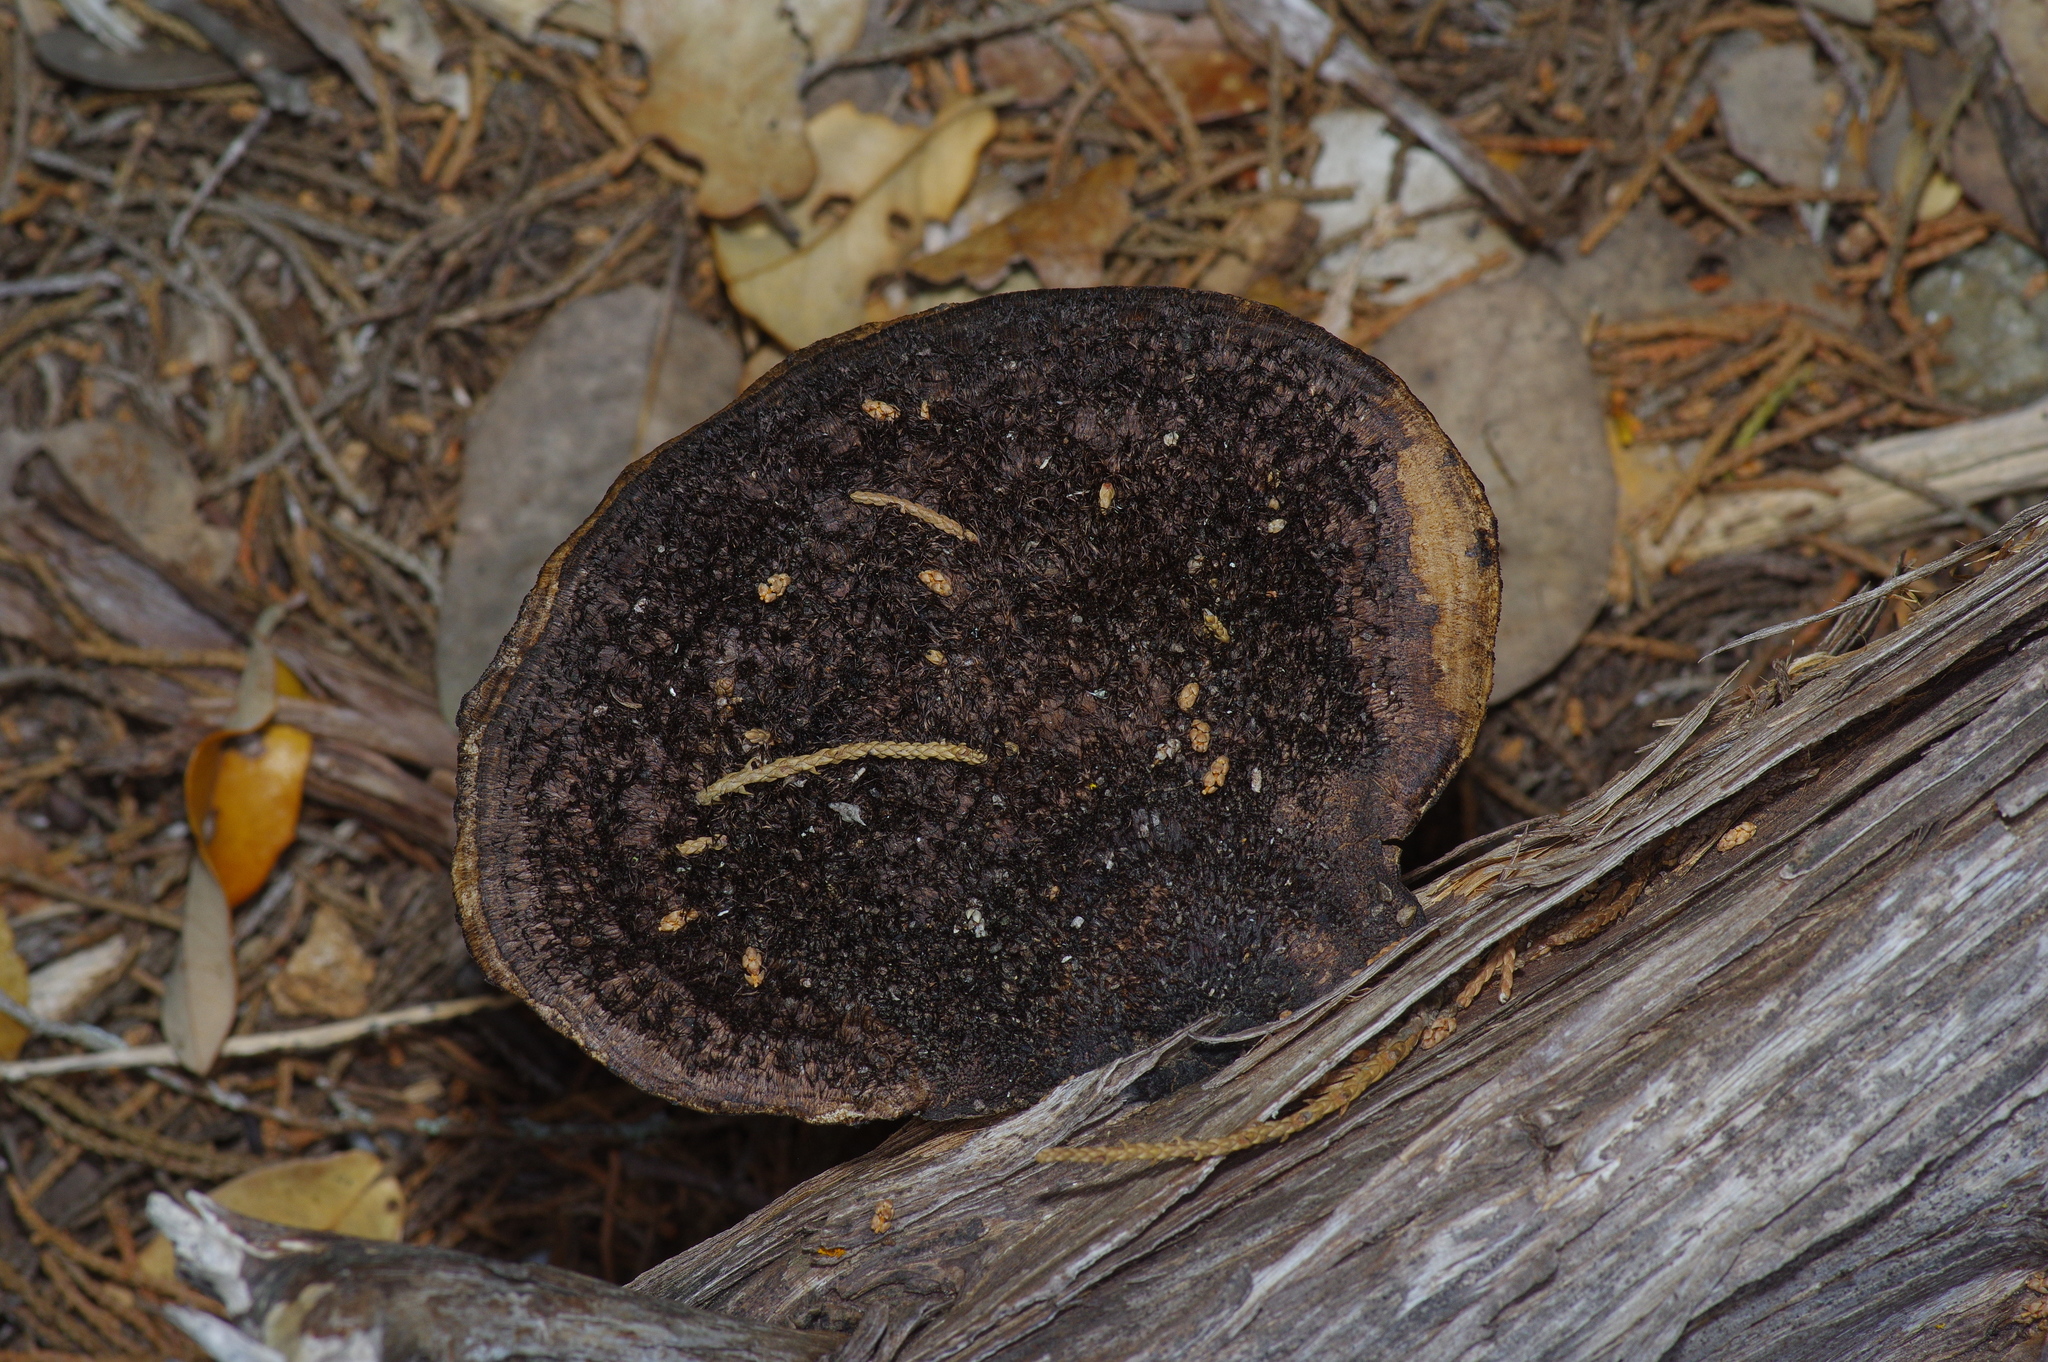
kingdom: Fungi
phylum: Basidiomycota
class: Agaricomycetes
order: Polyporales
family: Cerrenaceae
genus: Cerrena
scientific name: Cerrena hydnoides
